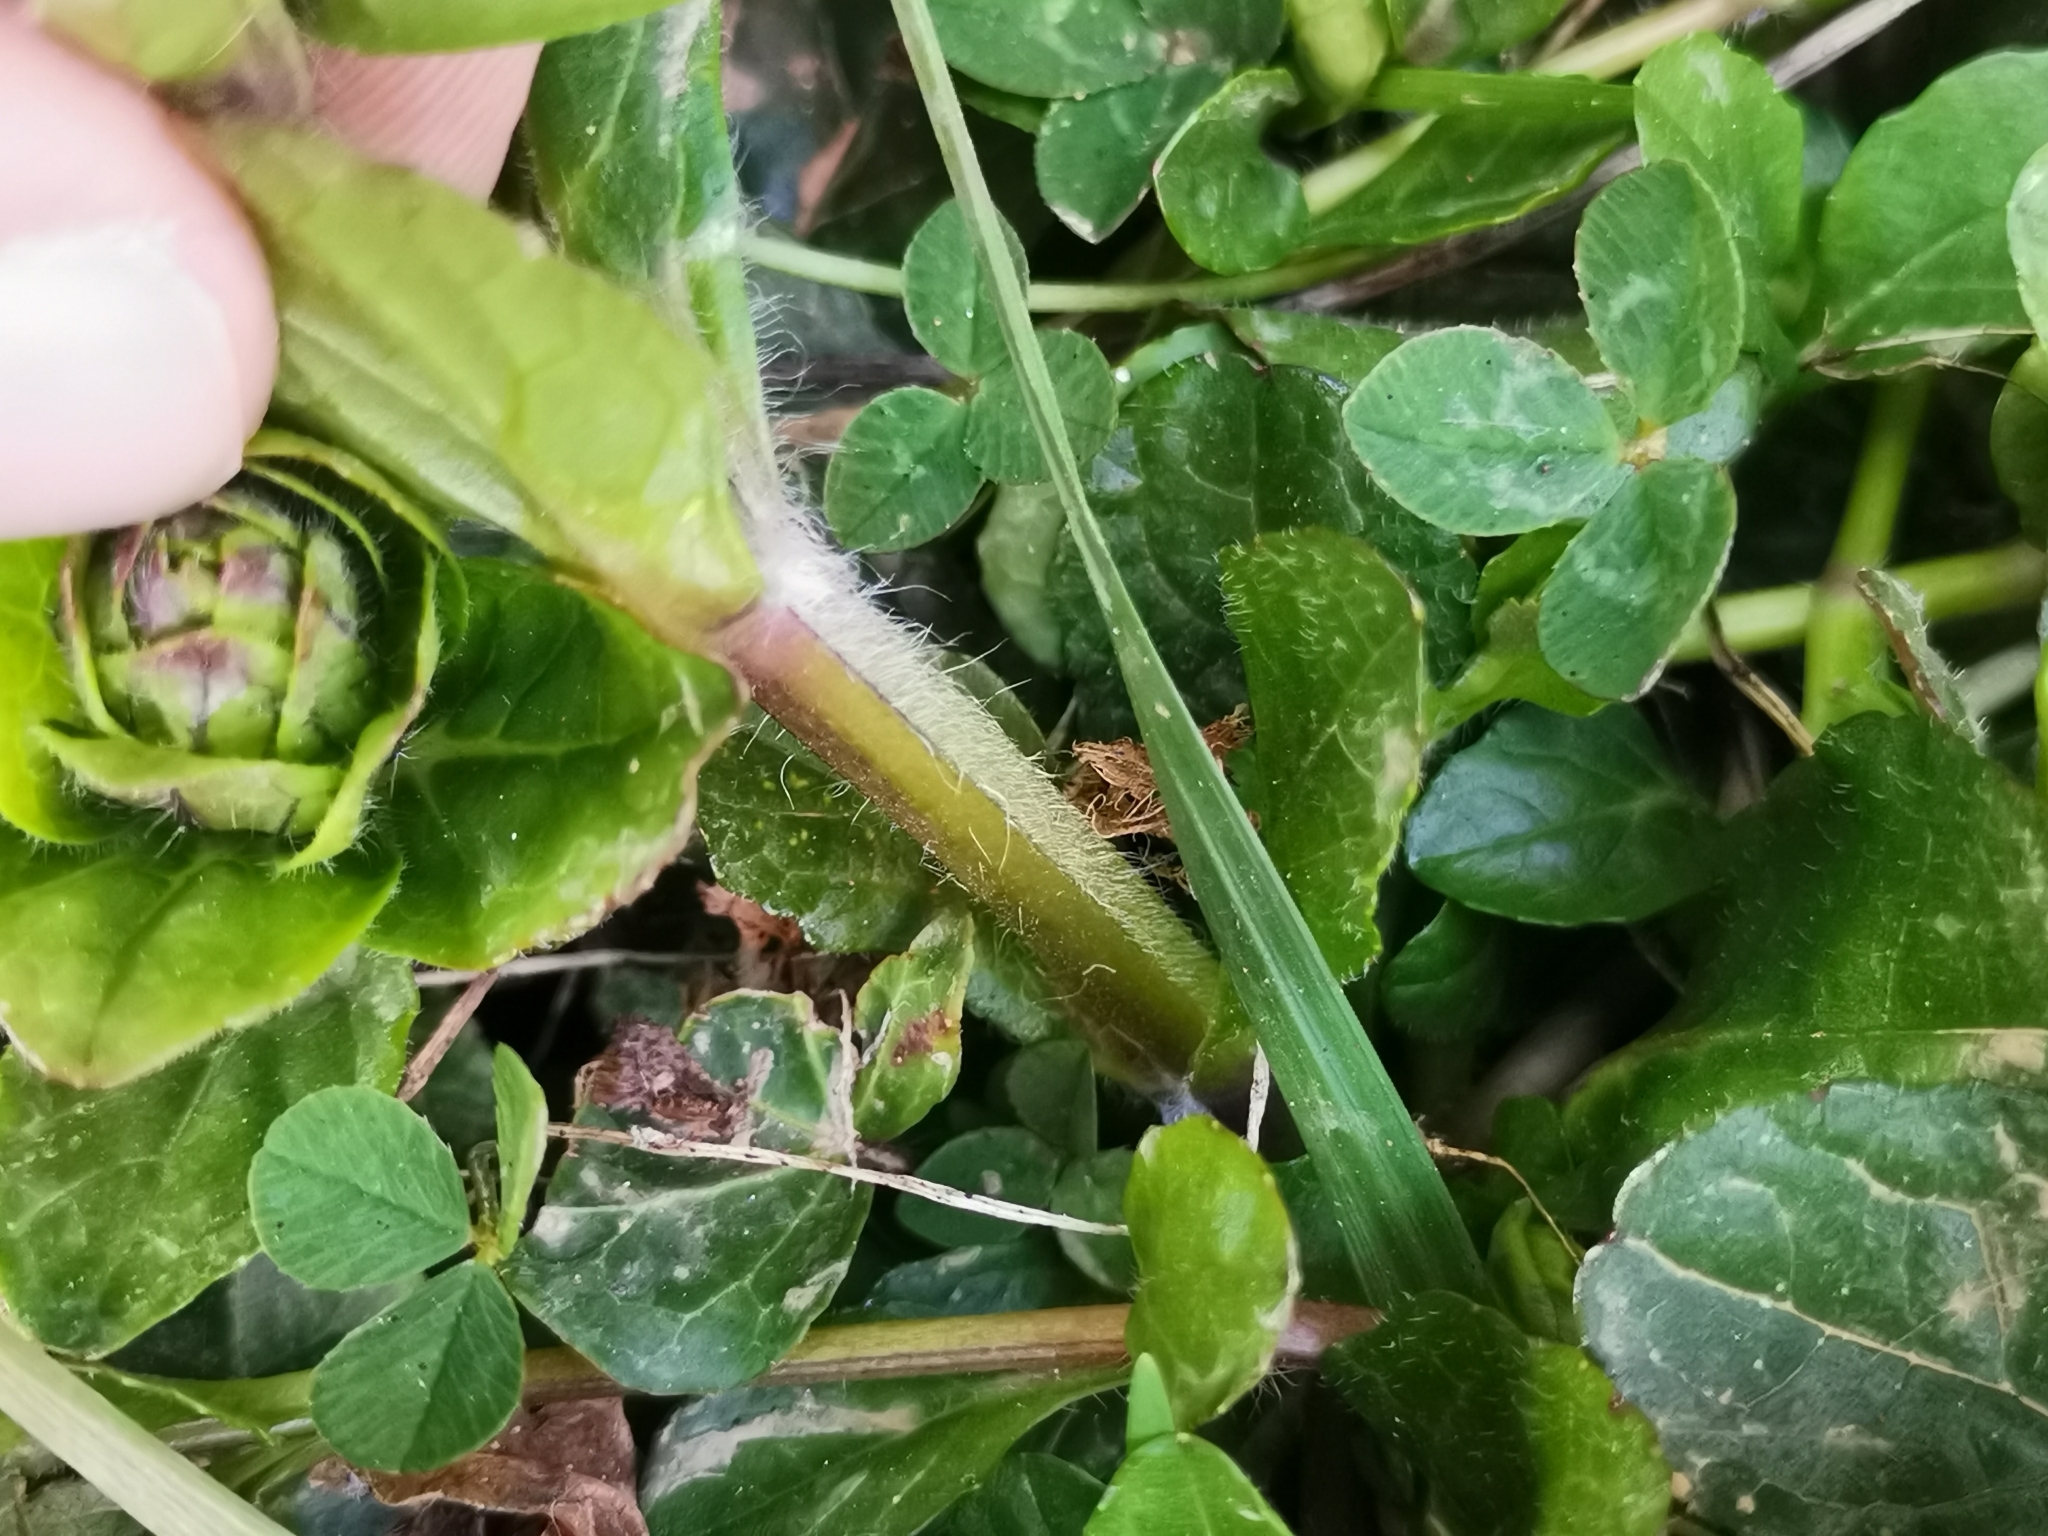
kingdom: Plantae
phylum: Tracheophyta
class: Magnoliopsida
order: Lamiales
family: Lamiaceae
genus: Ajuga
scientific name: Ajuga reptans
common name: Bugle
